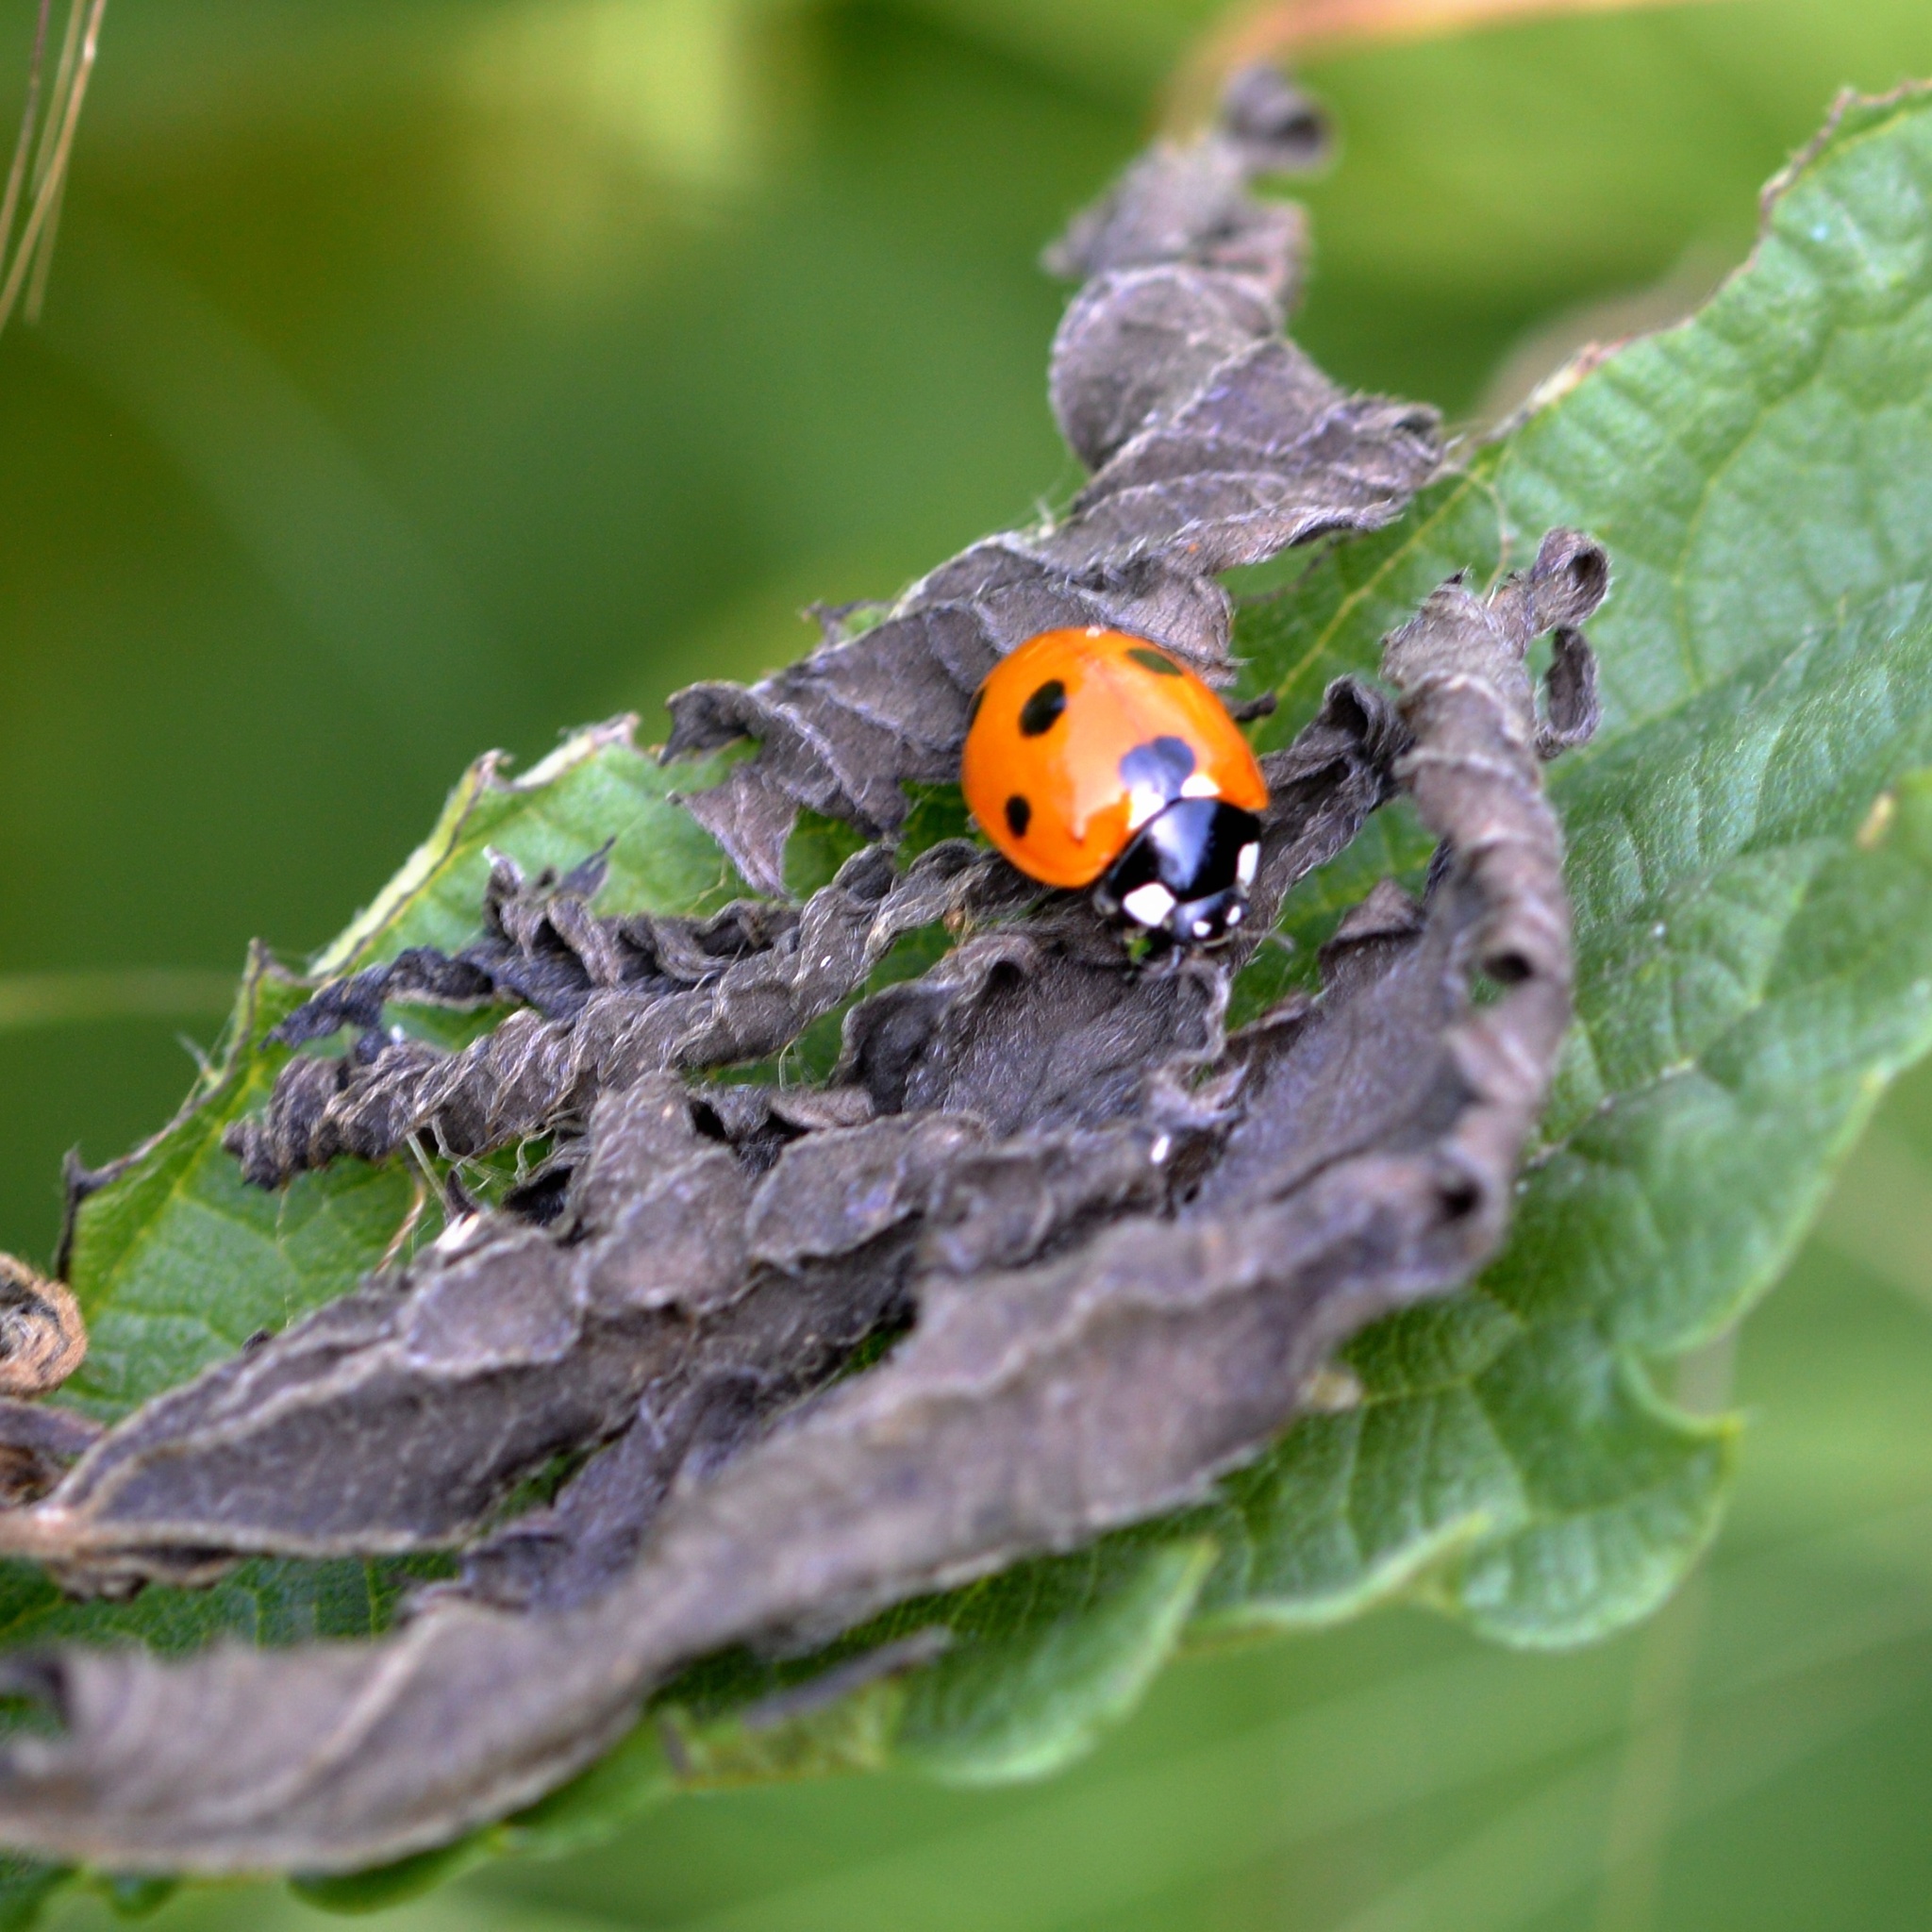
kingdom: Animalia
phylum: Arthropoda
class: Insecta
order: Coleoptera
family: Coccinellidae
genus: Coccinella
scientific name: Coccinella septempunctata
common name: Sevenspotted lady beetle
